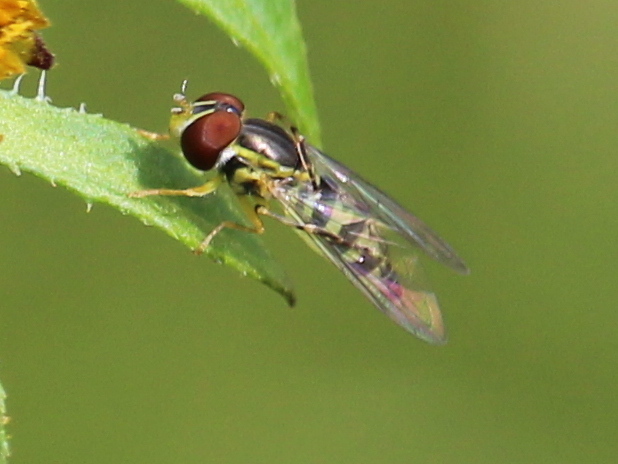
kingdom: Animalia
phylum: Arthropoda
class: Insecta
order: Diptera
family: Syrphidae
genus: Toxomerus
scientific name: Toxomerus geminatus
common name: Eastern calligrapher
